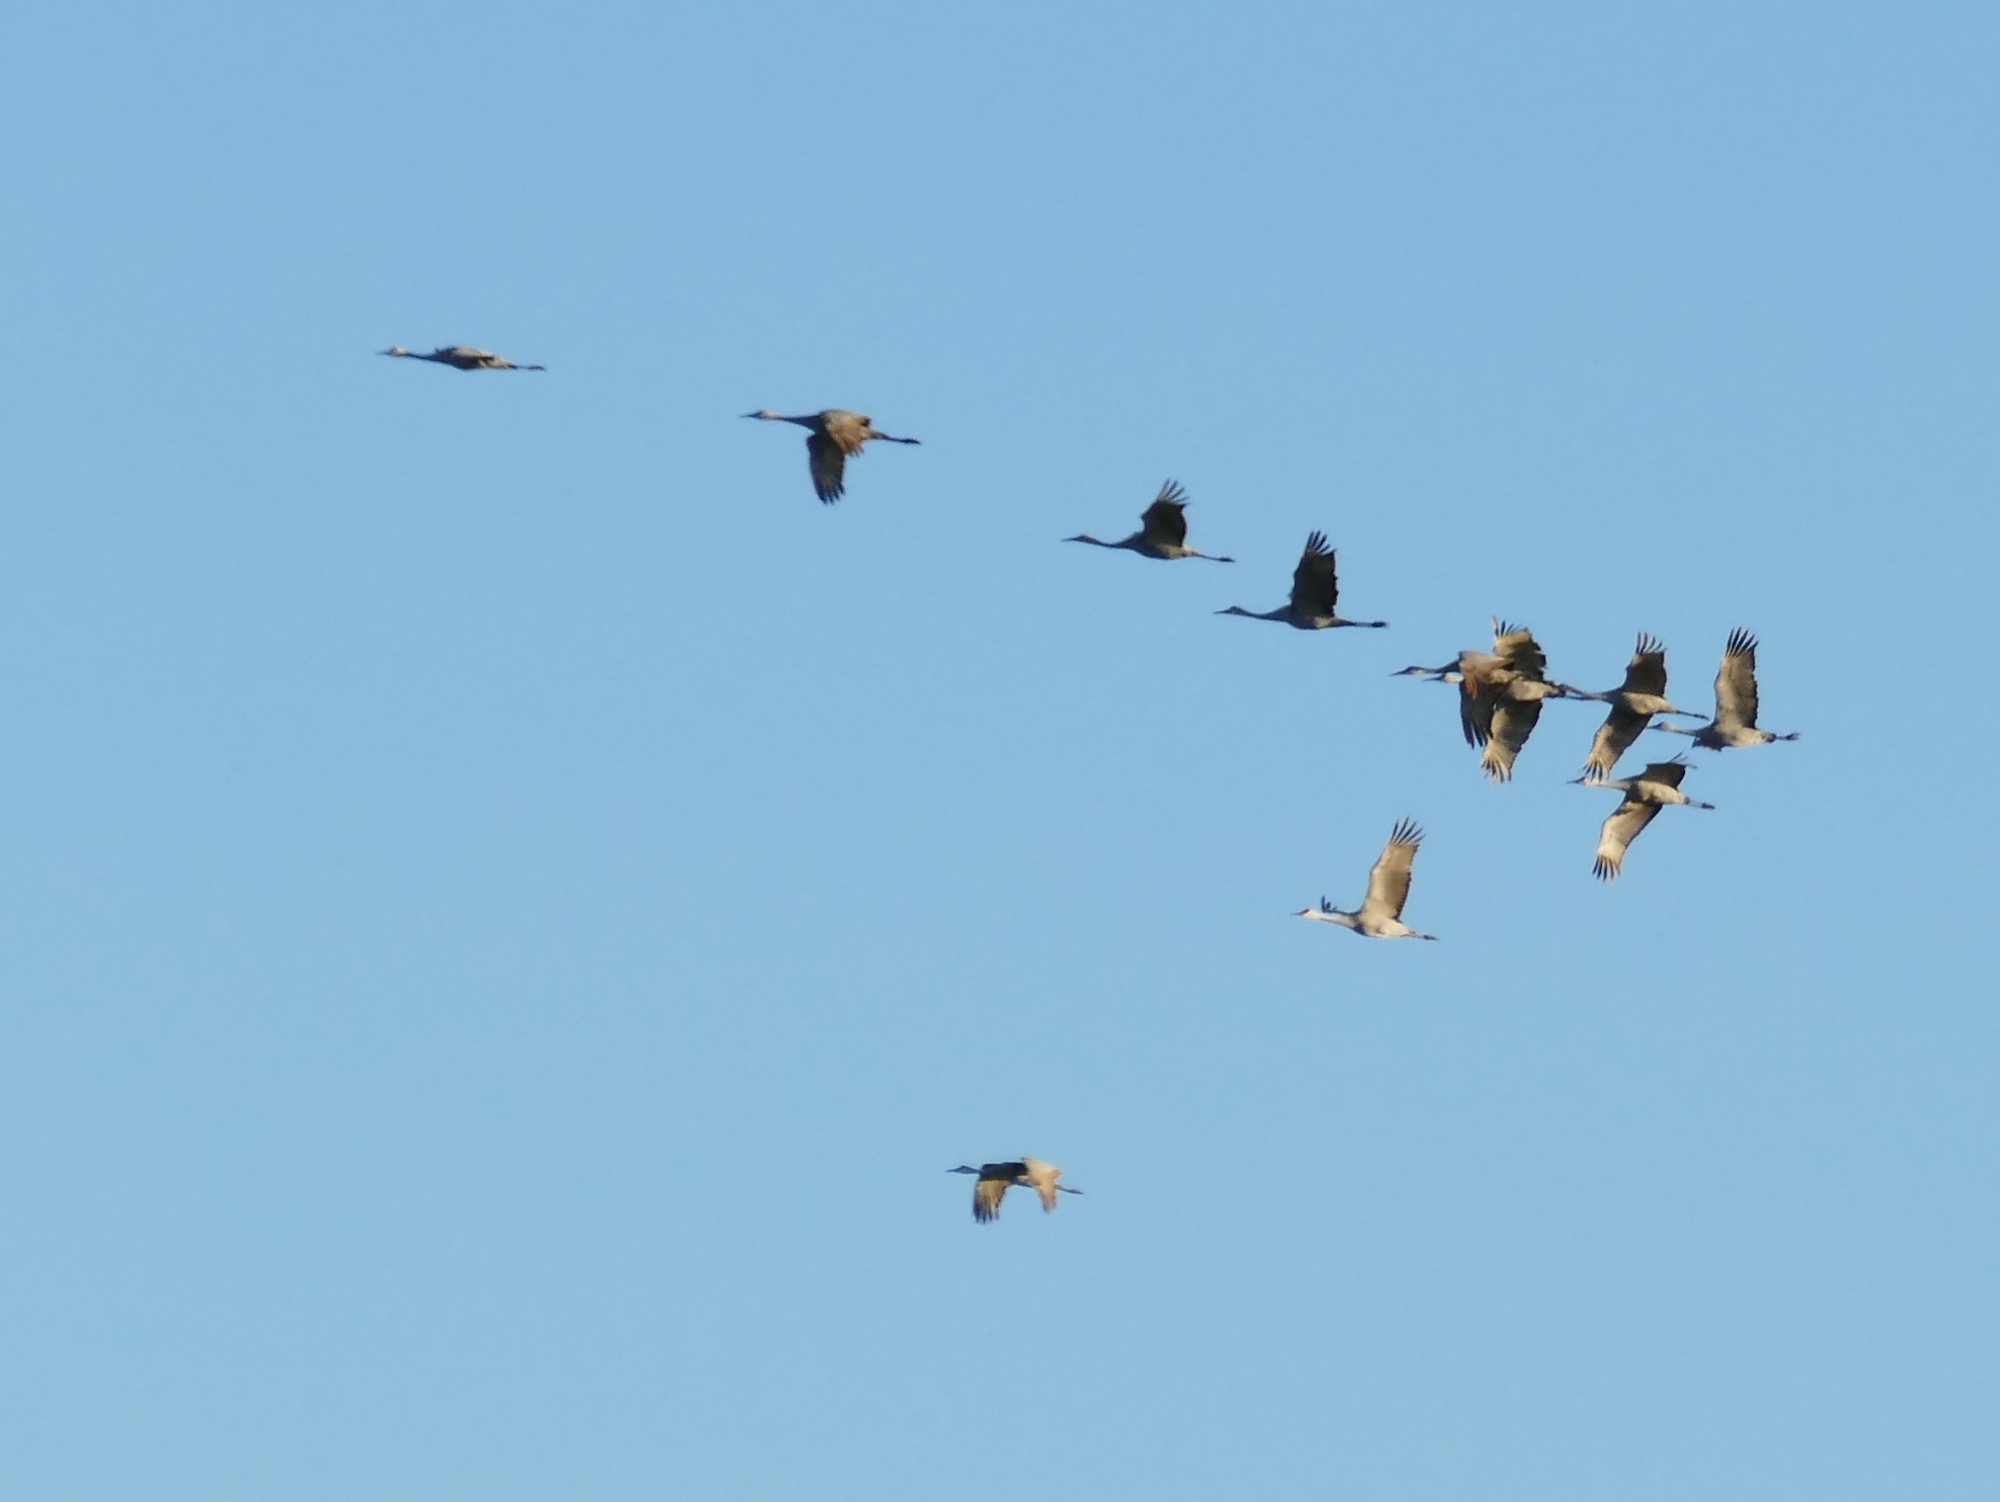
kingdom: Animalia
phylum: Chordata
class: Aves
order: Gruiformes
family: Gruidae
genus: Grus
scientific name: Grus canadensis
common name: Sandhill crane
